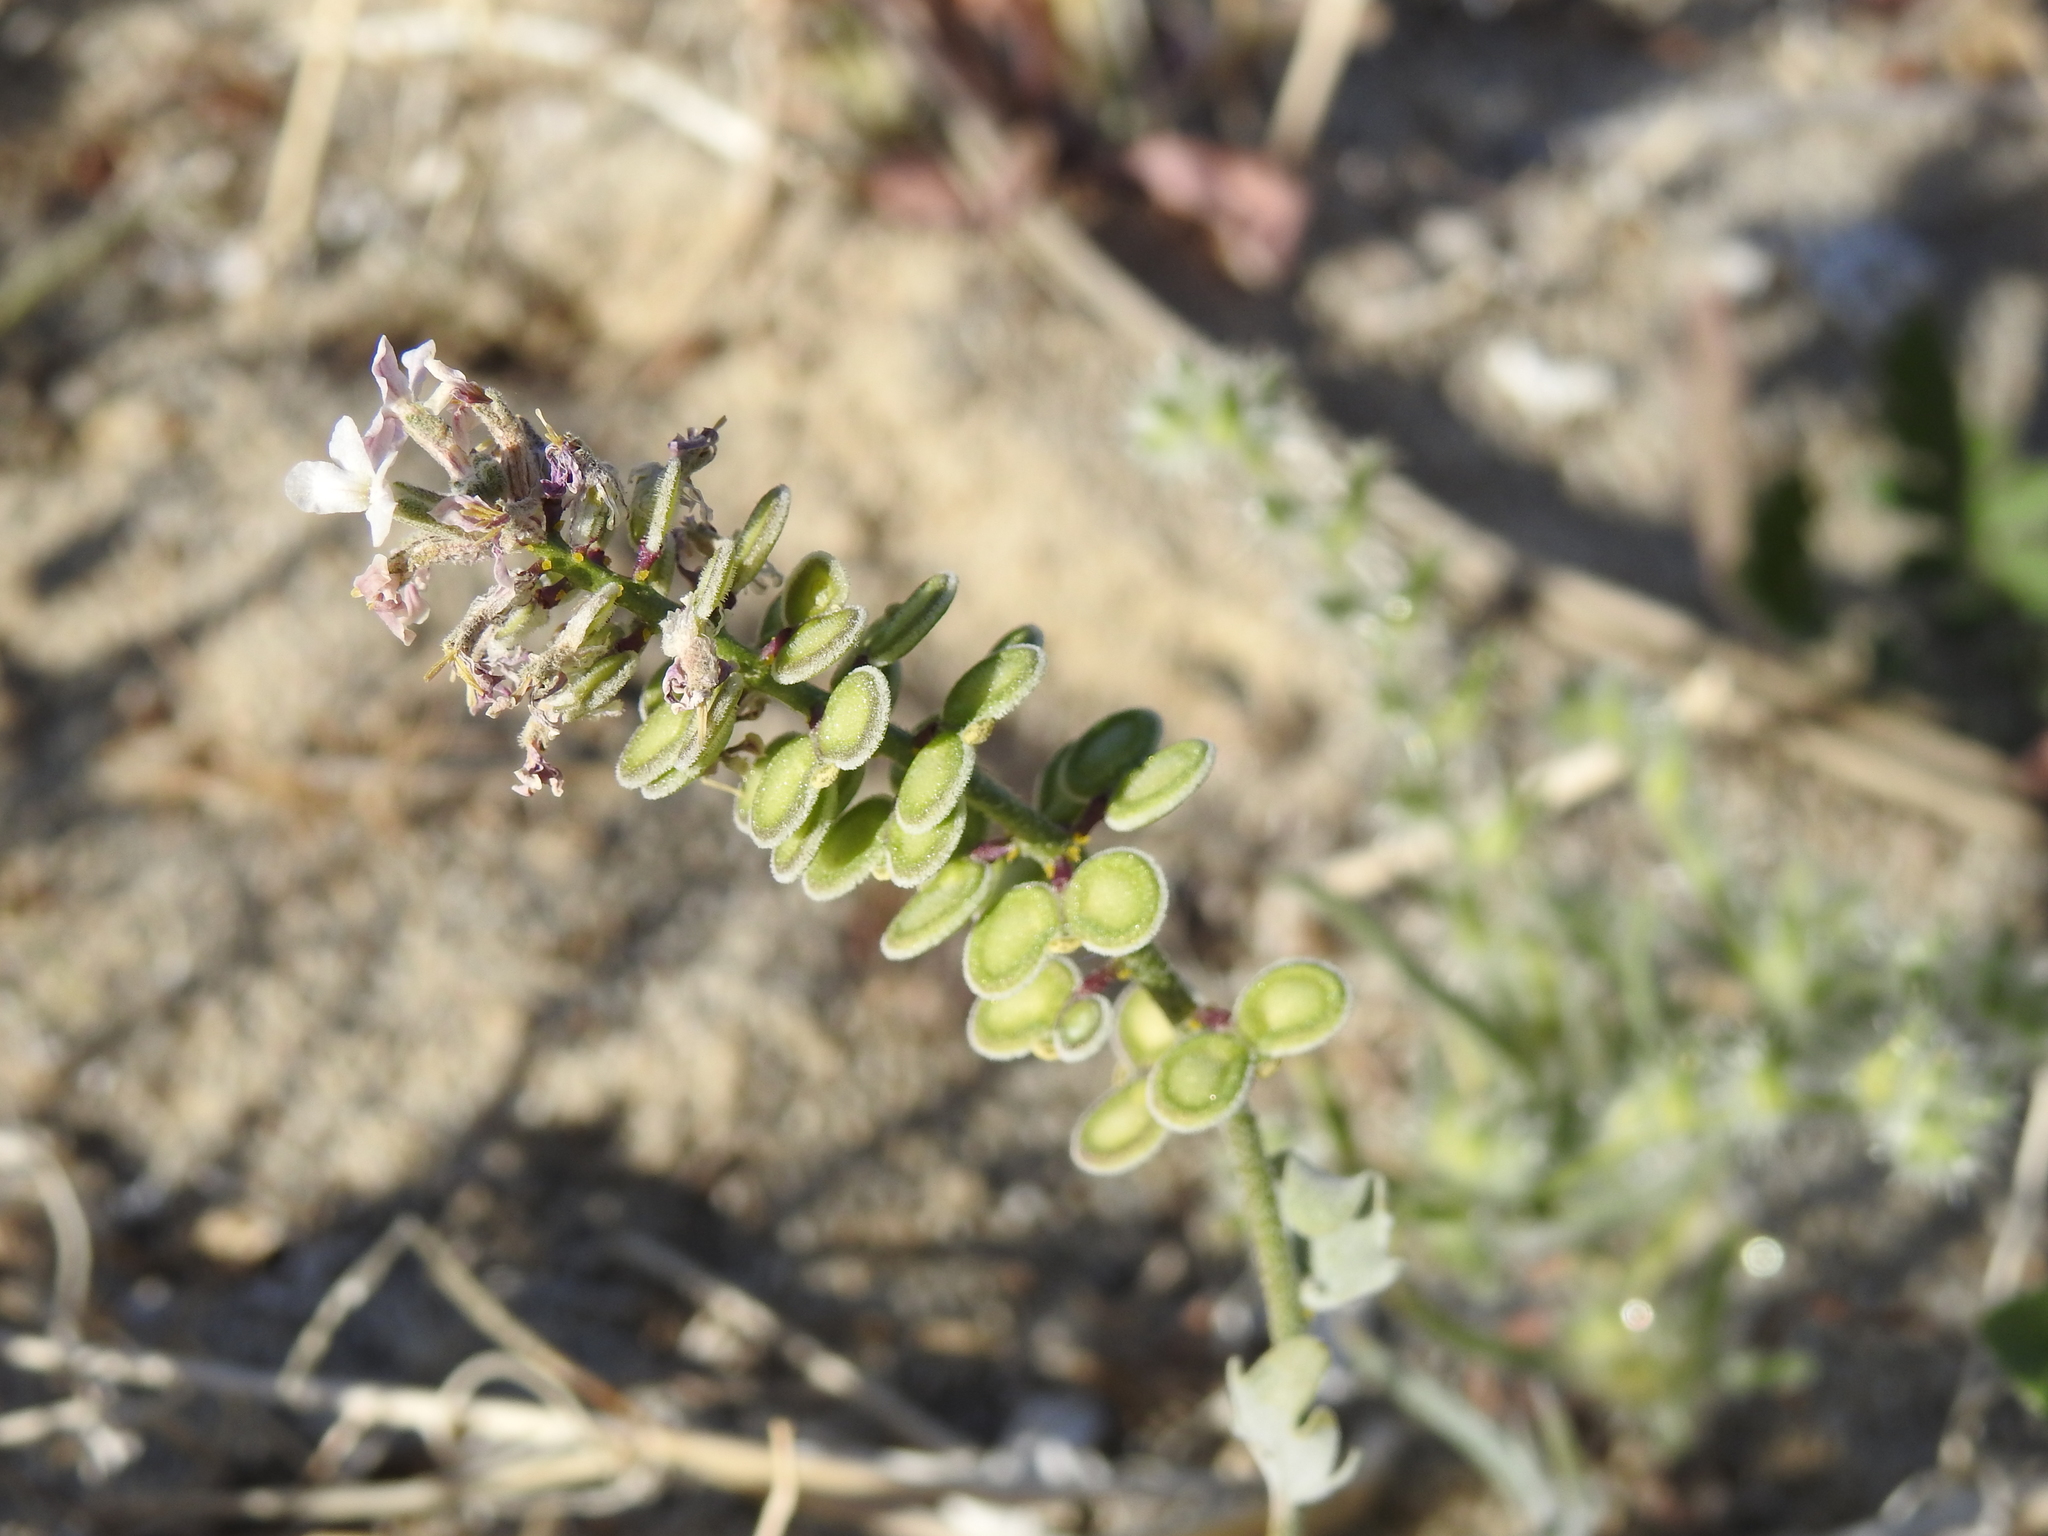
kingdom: Plantae
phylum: Tracheophyta
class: Magnoliopsida
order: Brassicales
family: Brassicaceae
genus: Dithyrea
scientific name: Dithyrea californica
